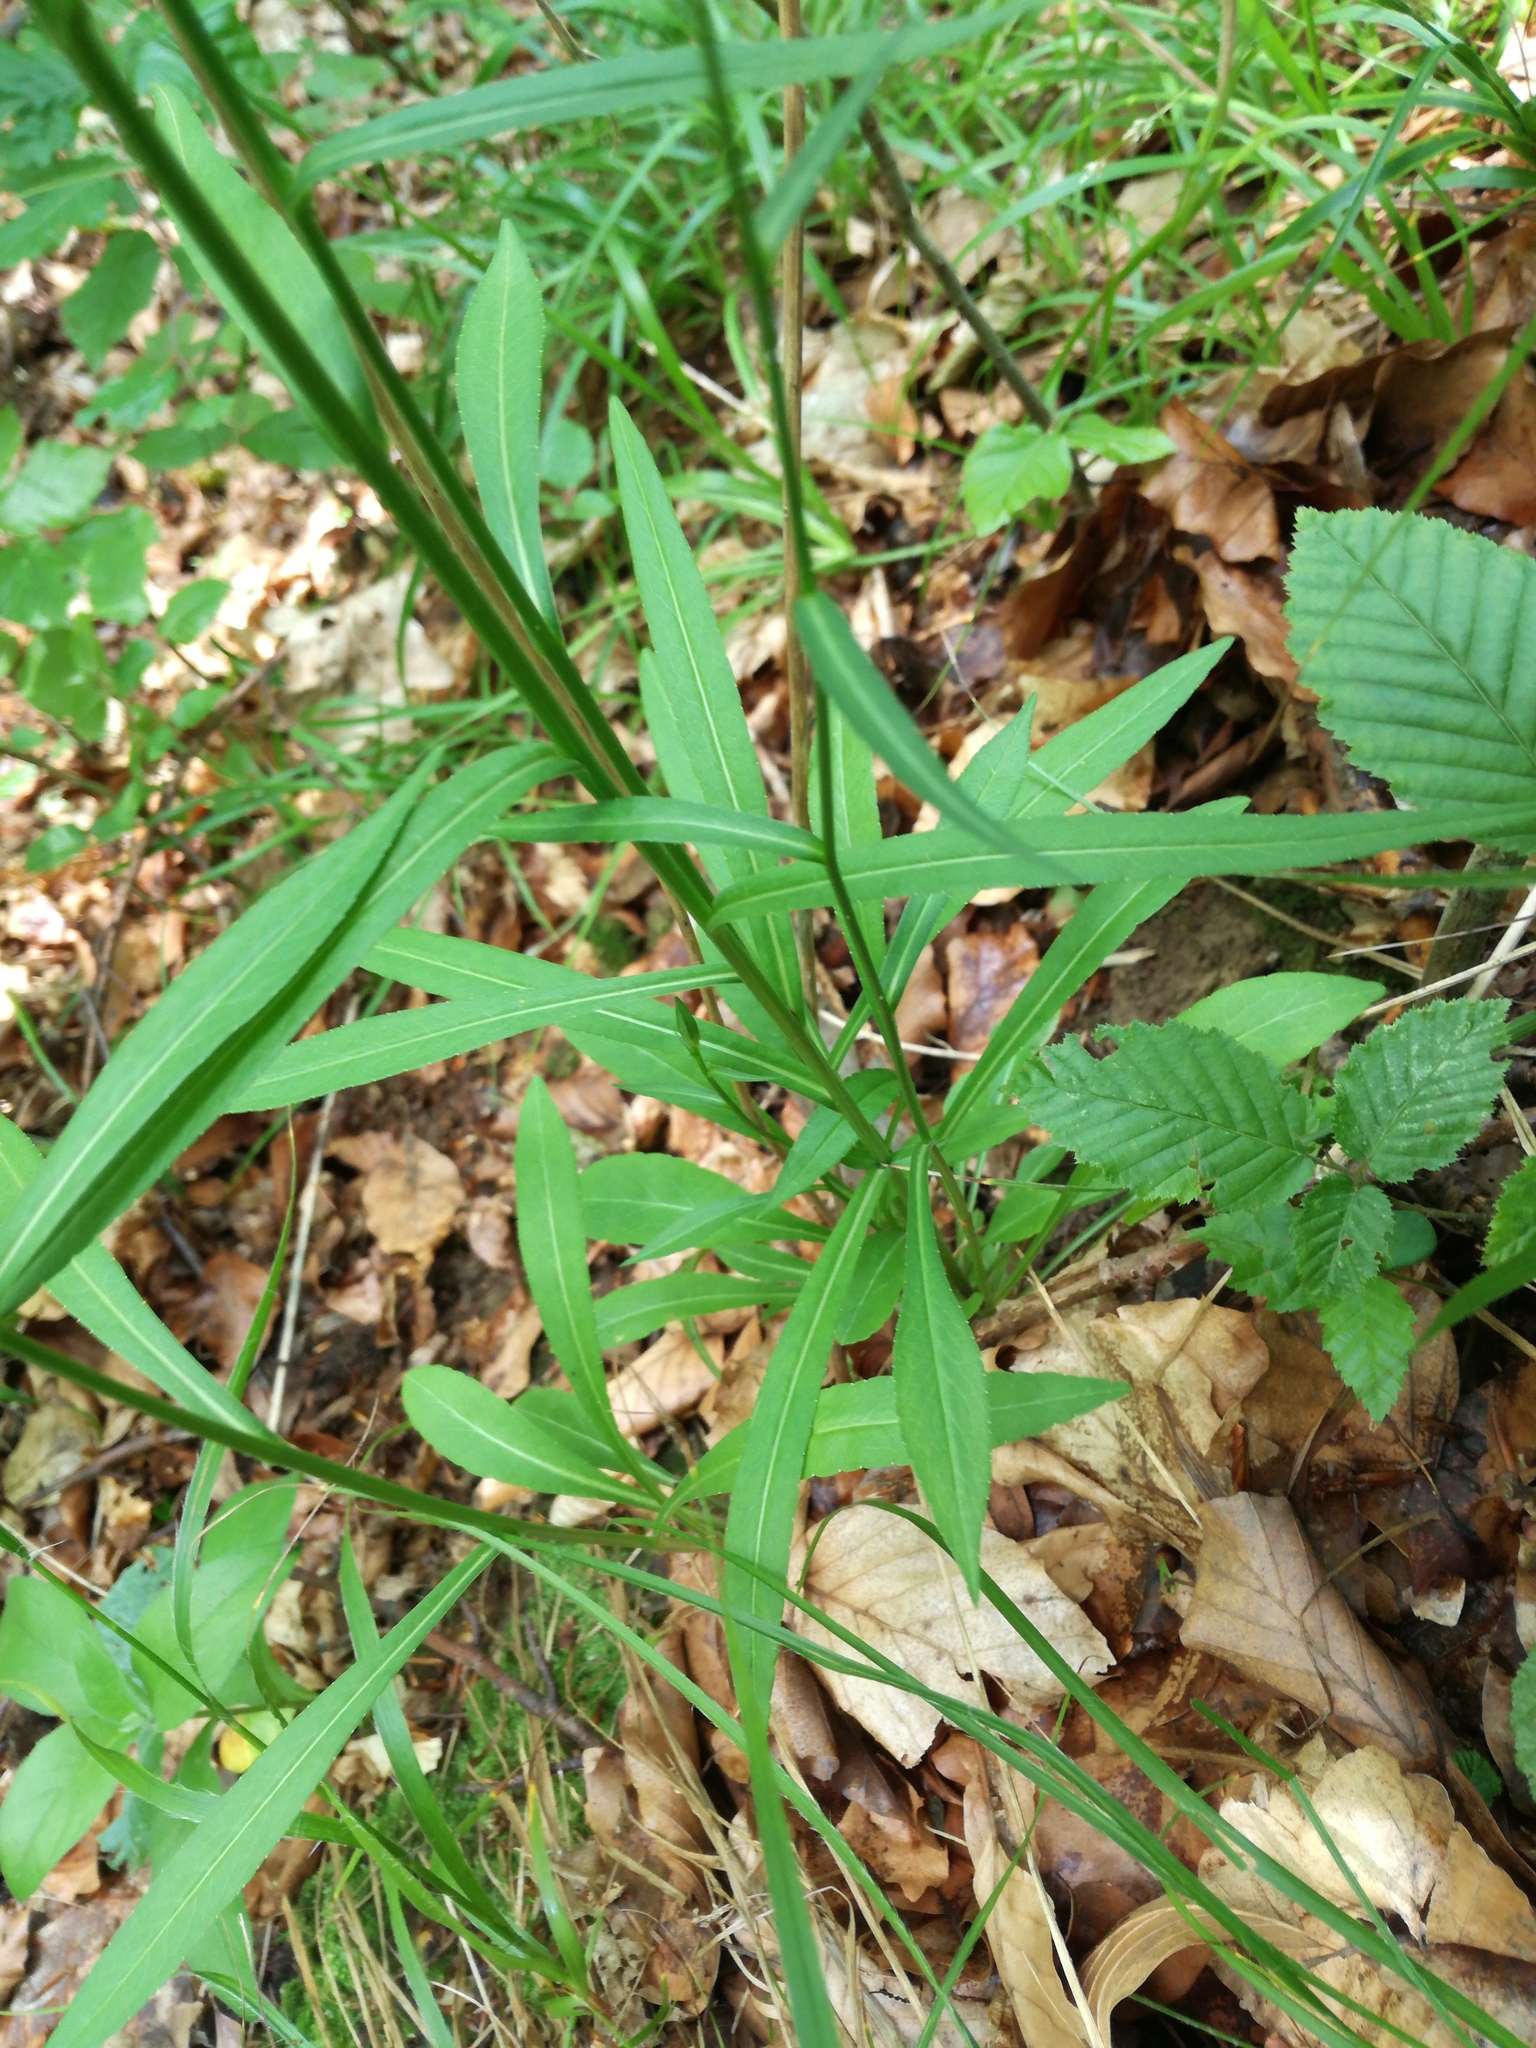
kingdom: Plantae
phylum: Tracheophyta
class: Magnoliopsida
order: Asterales
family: Campanulaceae
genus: Campanula
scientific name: Campanula persicifolia
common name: Peach-leaved bellflower
